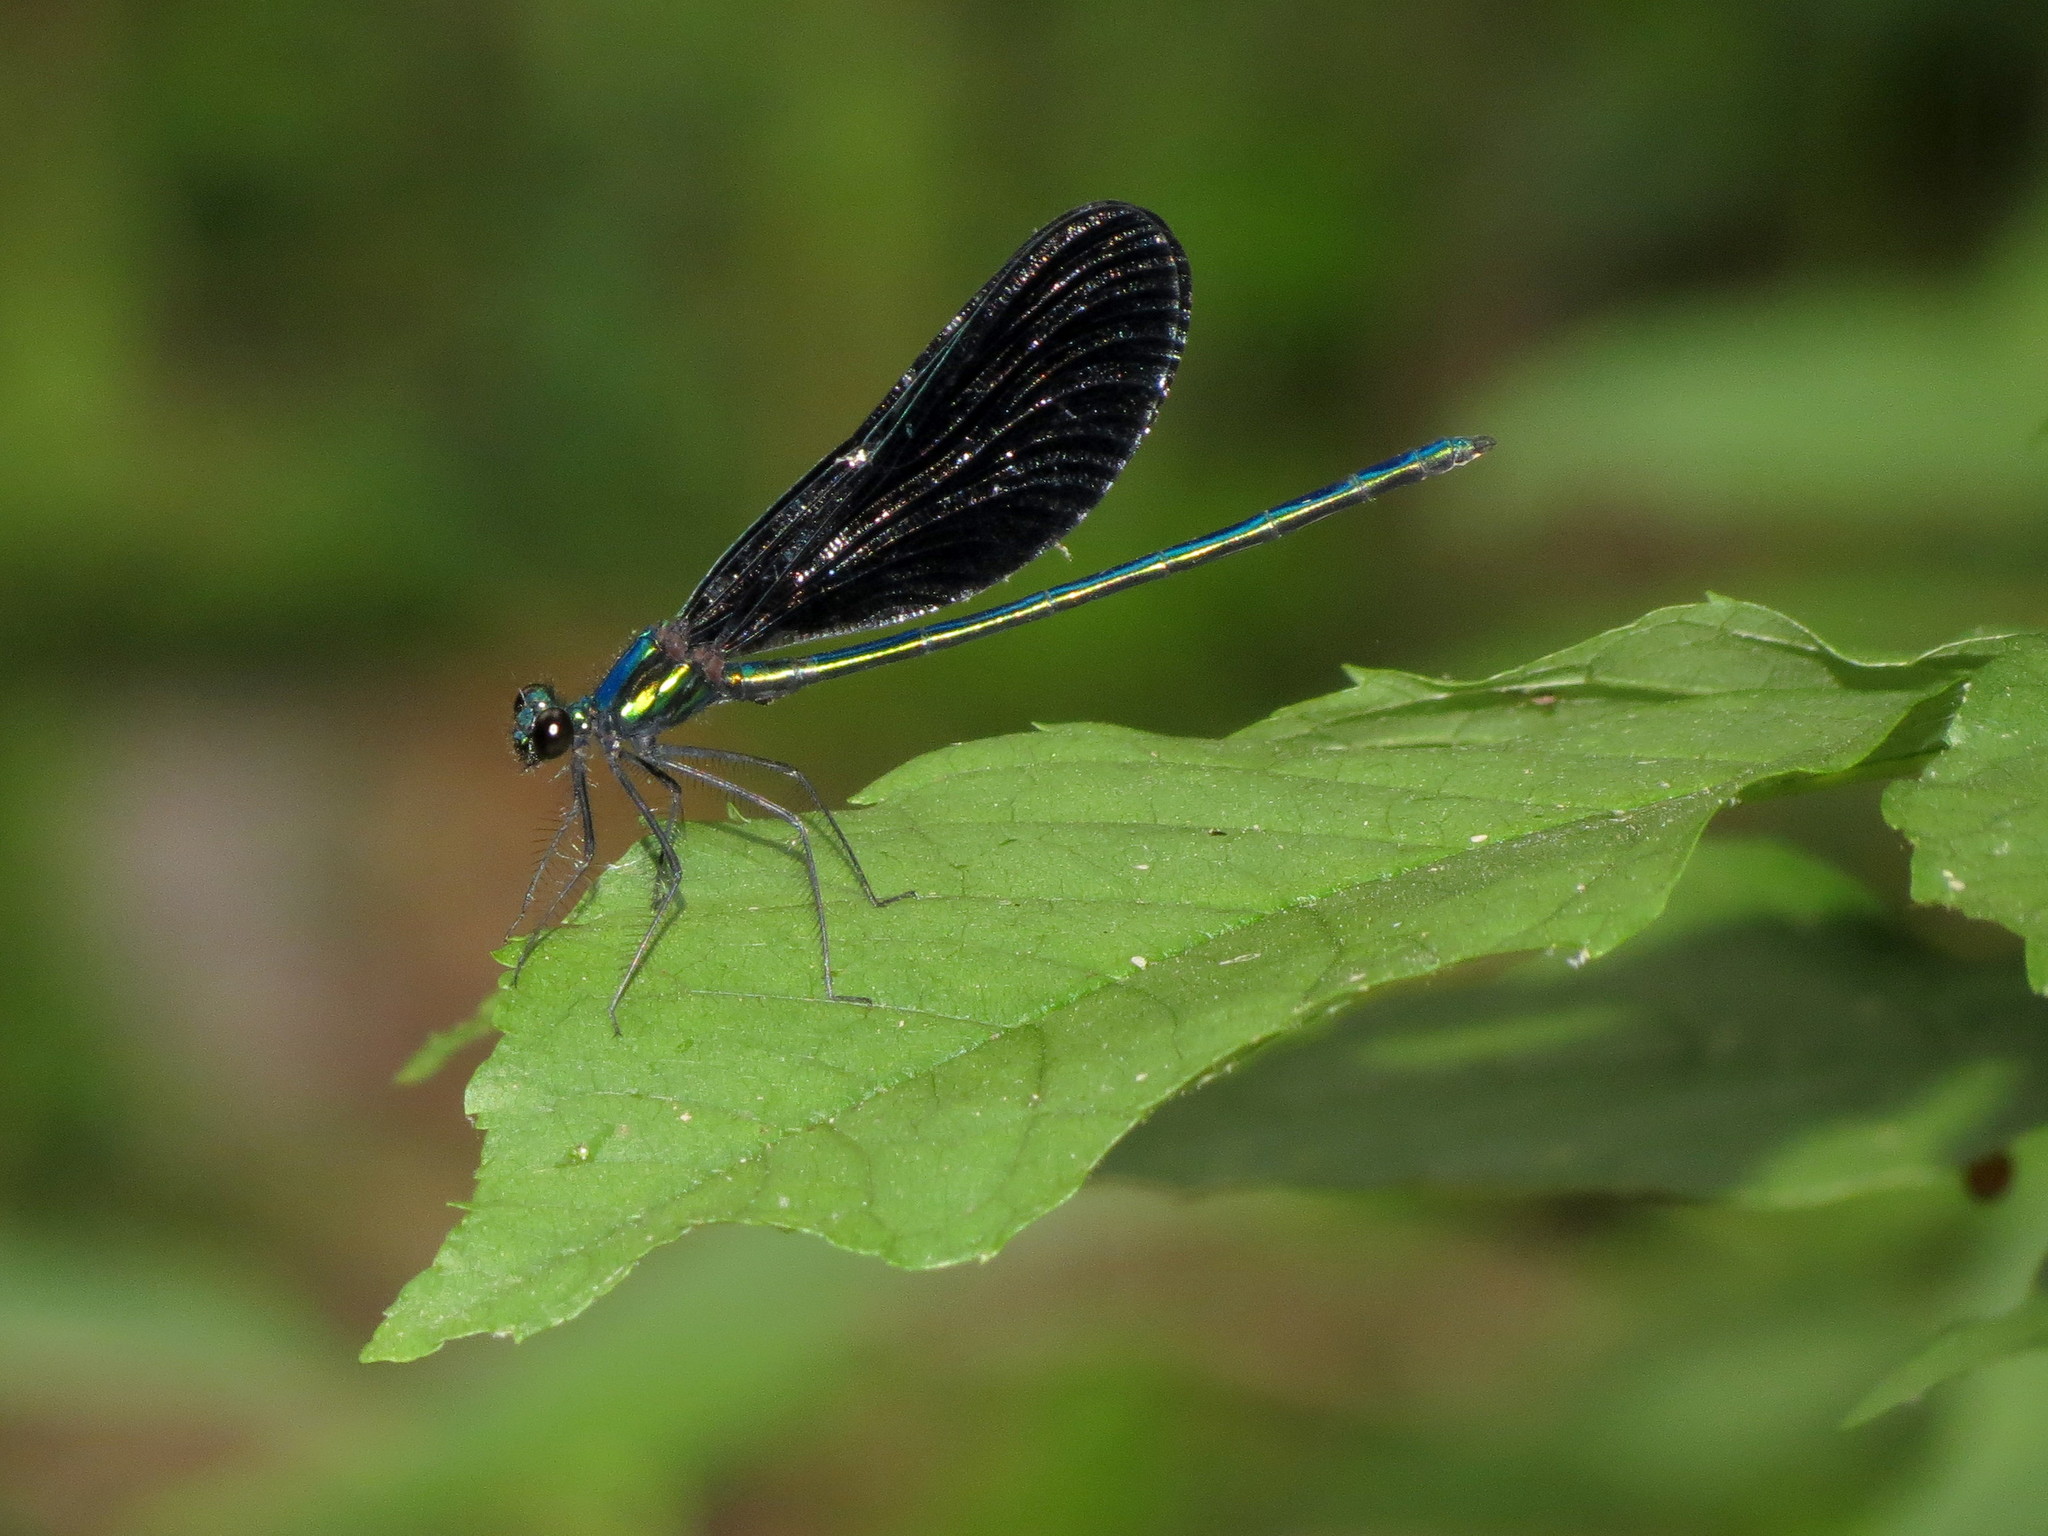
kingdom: Animalia
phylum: Arthropoda
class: Insecta
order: Odonata
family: Calopterygidae
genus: Calopteryx
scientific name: Calopteryx maculata
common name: Ebony jewelwing
